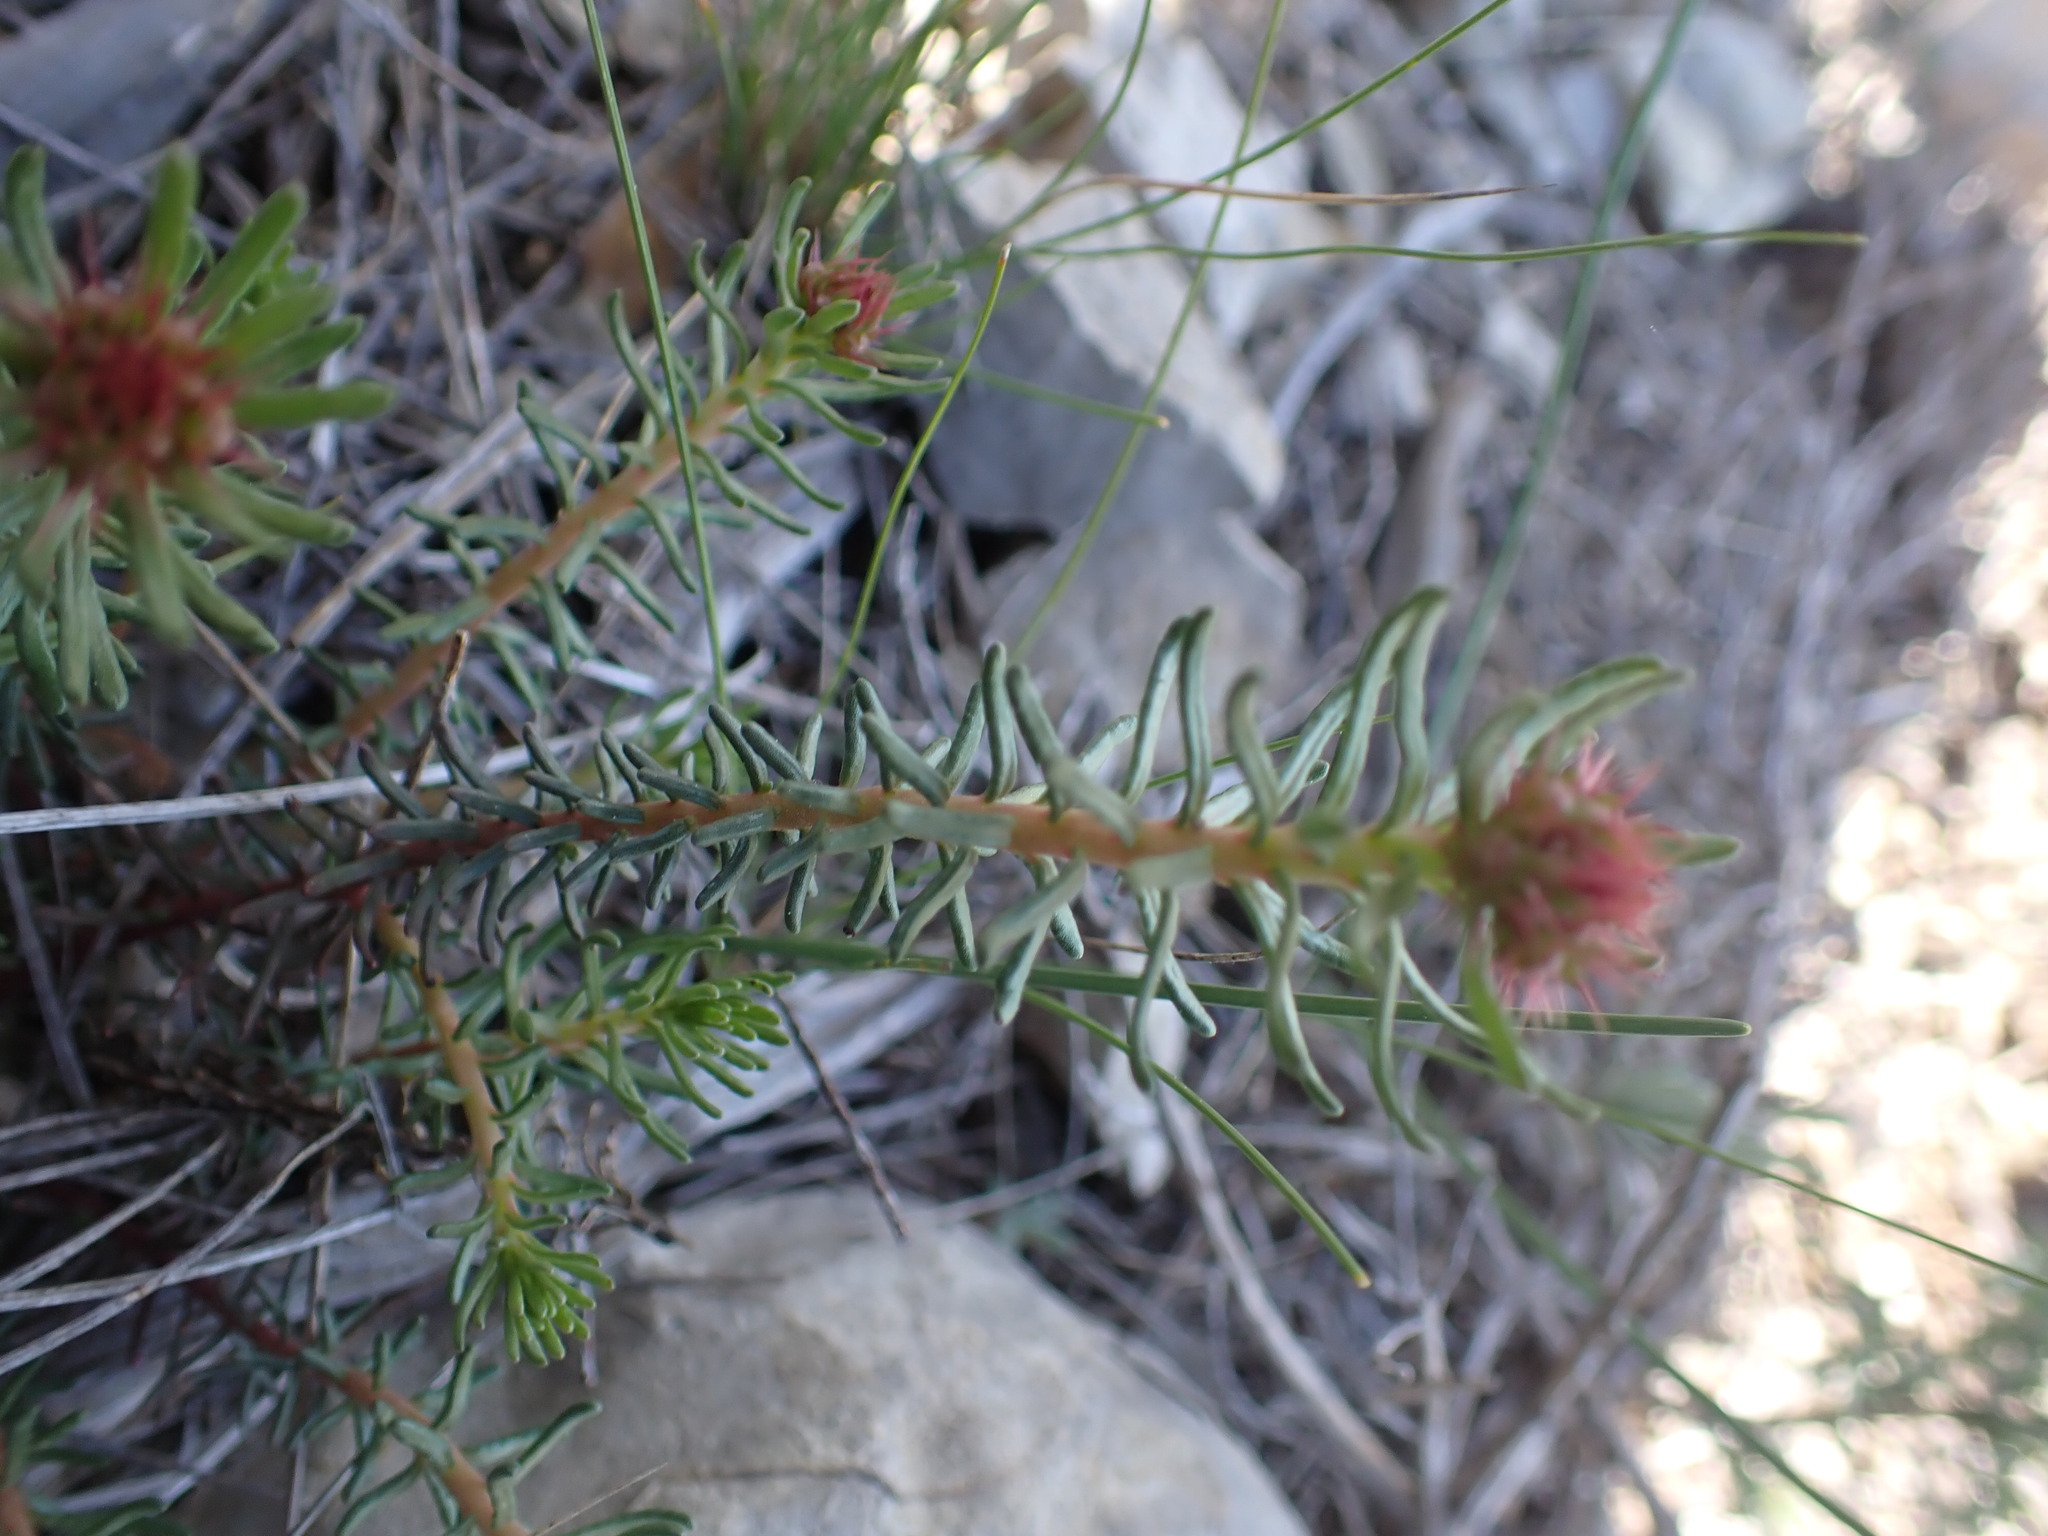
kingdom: Plantae
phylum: Tracheophyta
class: Magnoliopsida
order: Ericales
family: Primulaceae
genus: Coris
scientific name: Coris monspeliensis
